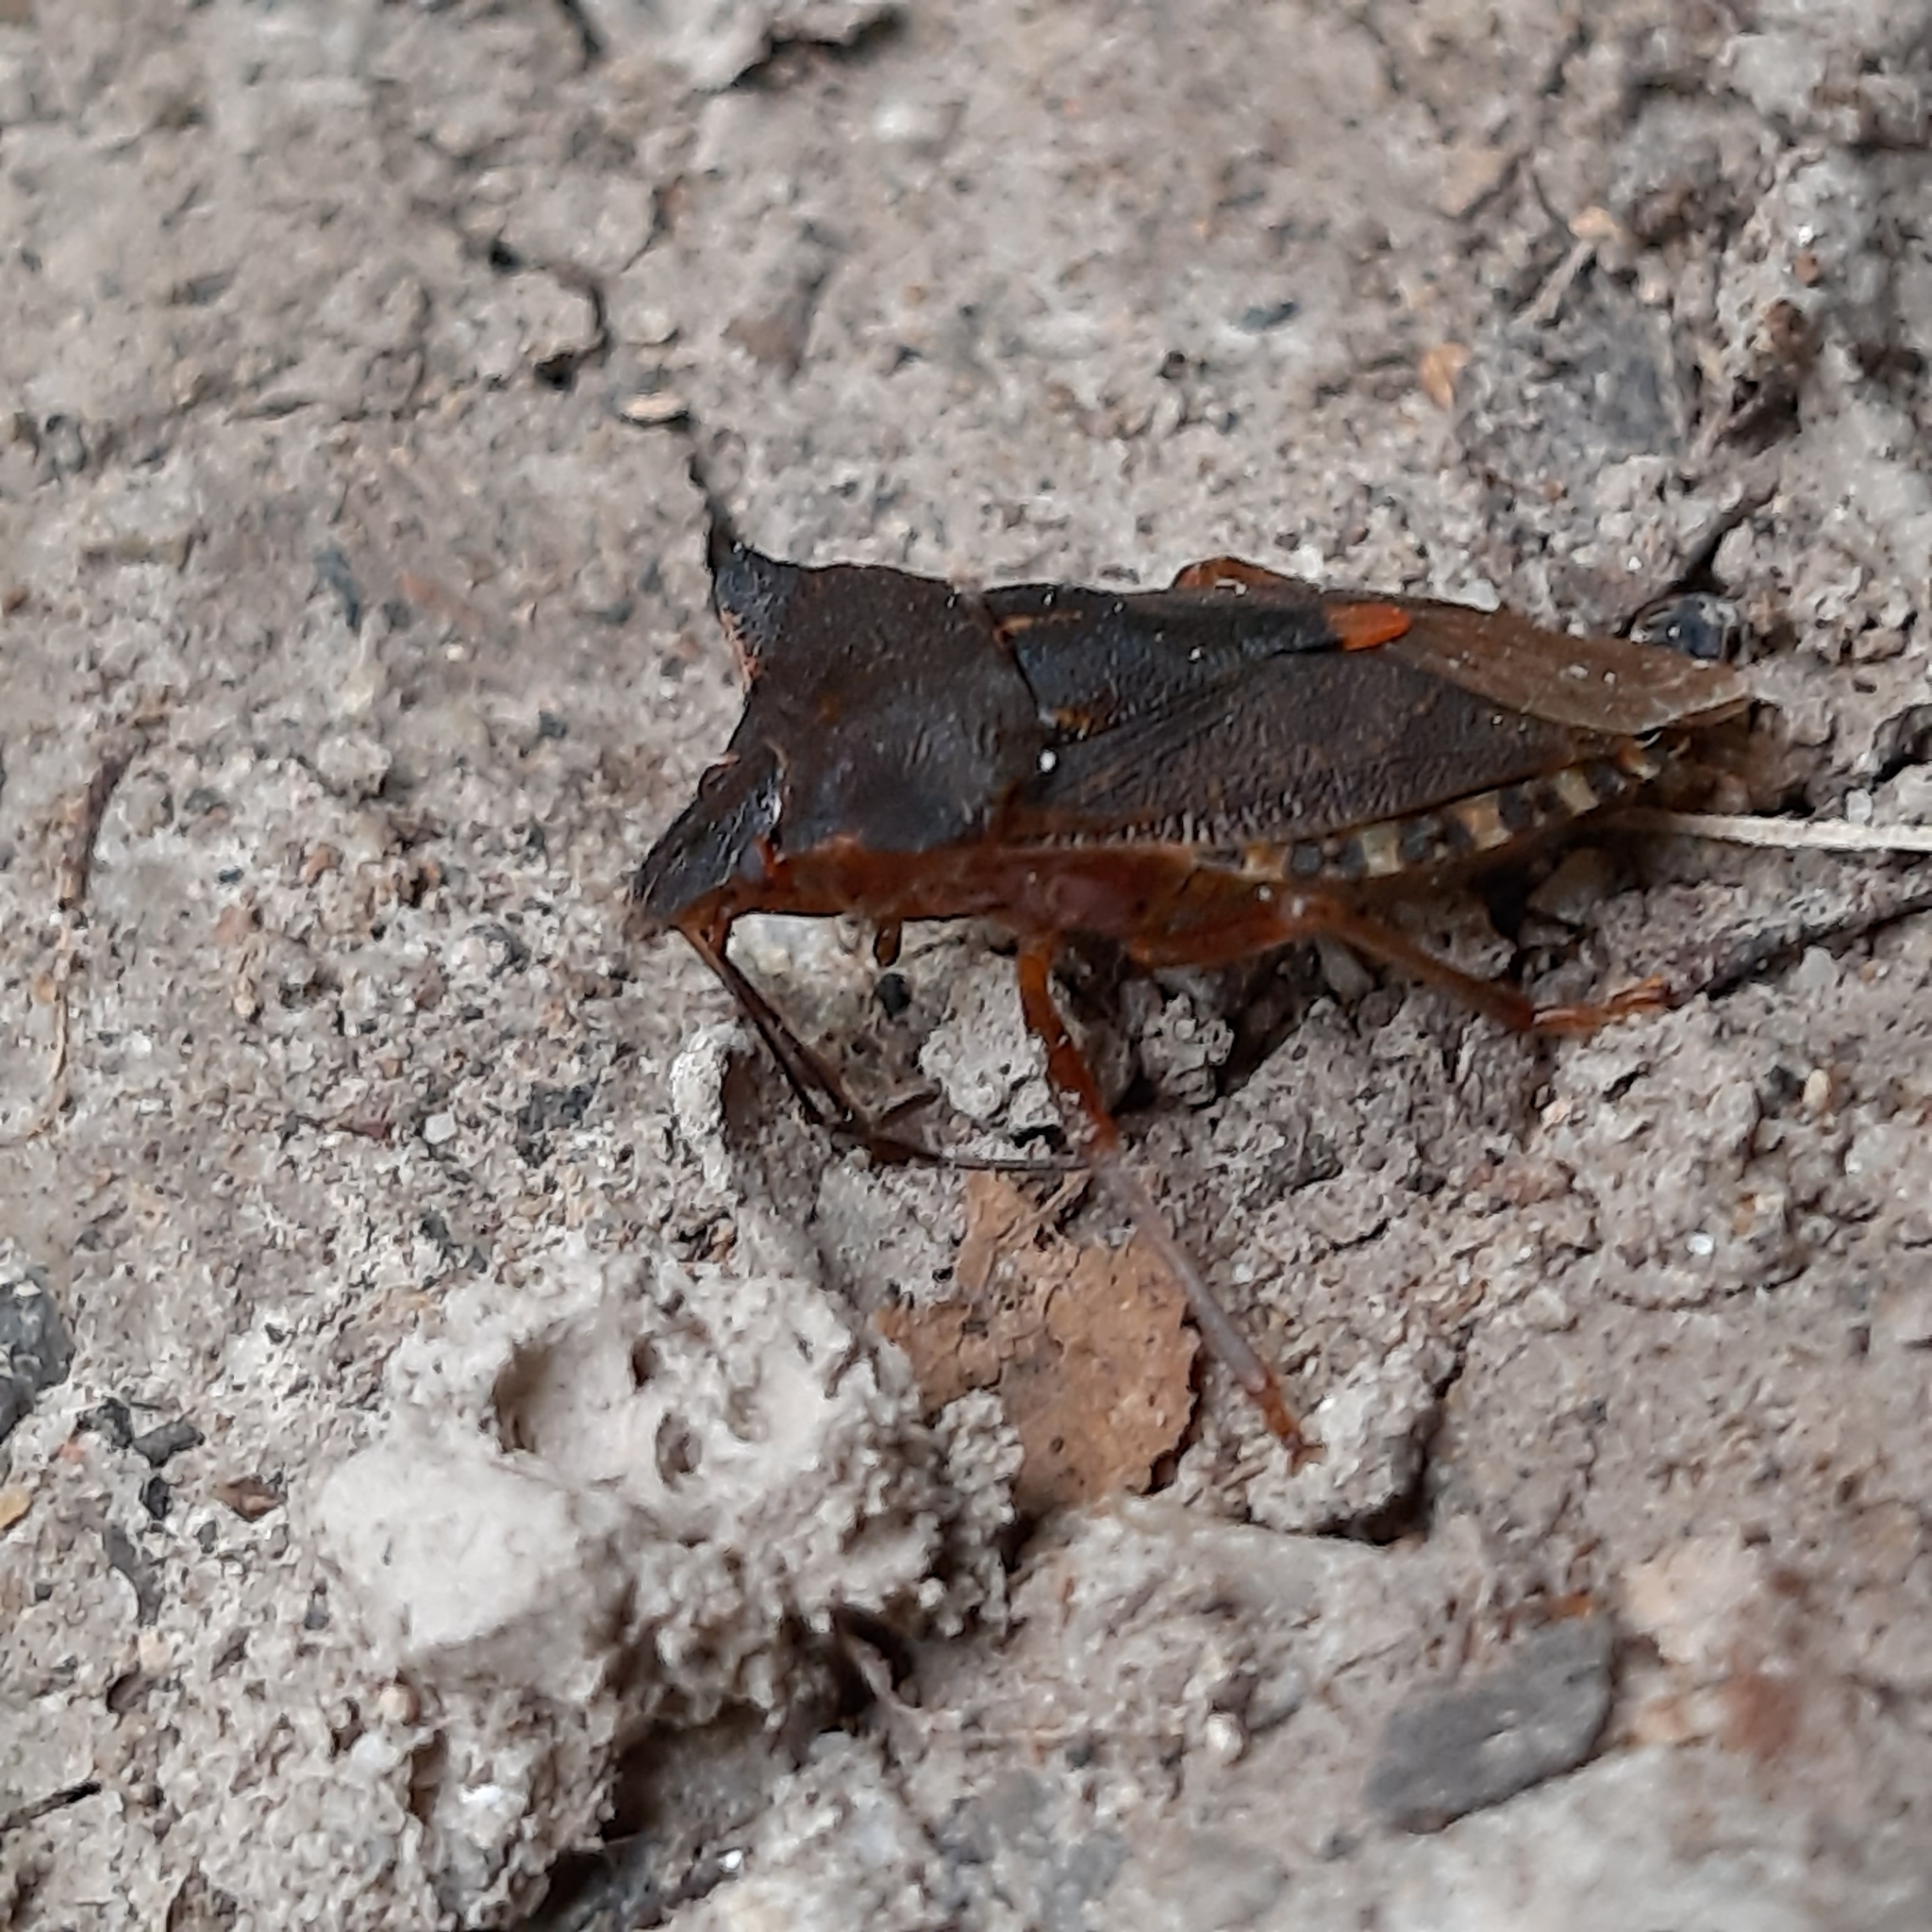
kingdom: Animalia
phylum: Arthropoda
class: Insecta
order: Hemiptera
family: Pentatomidae
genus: Pentatoma
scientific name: Pentatoma rufipes
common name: Forest bug
